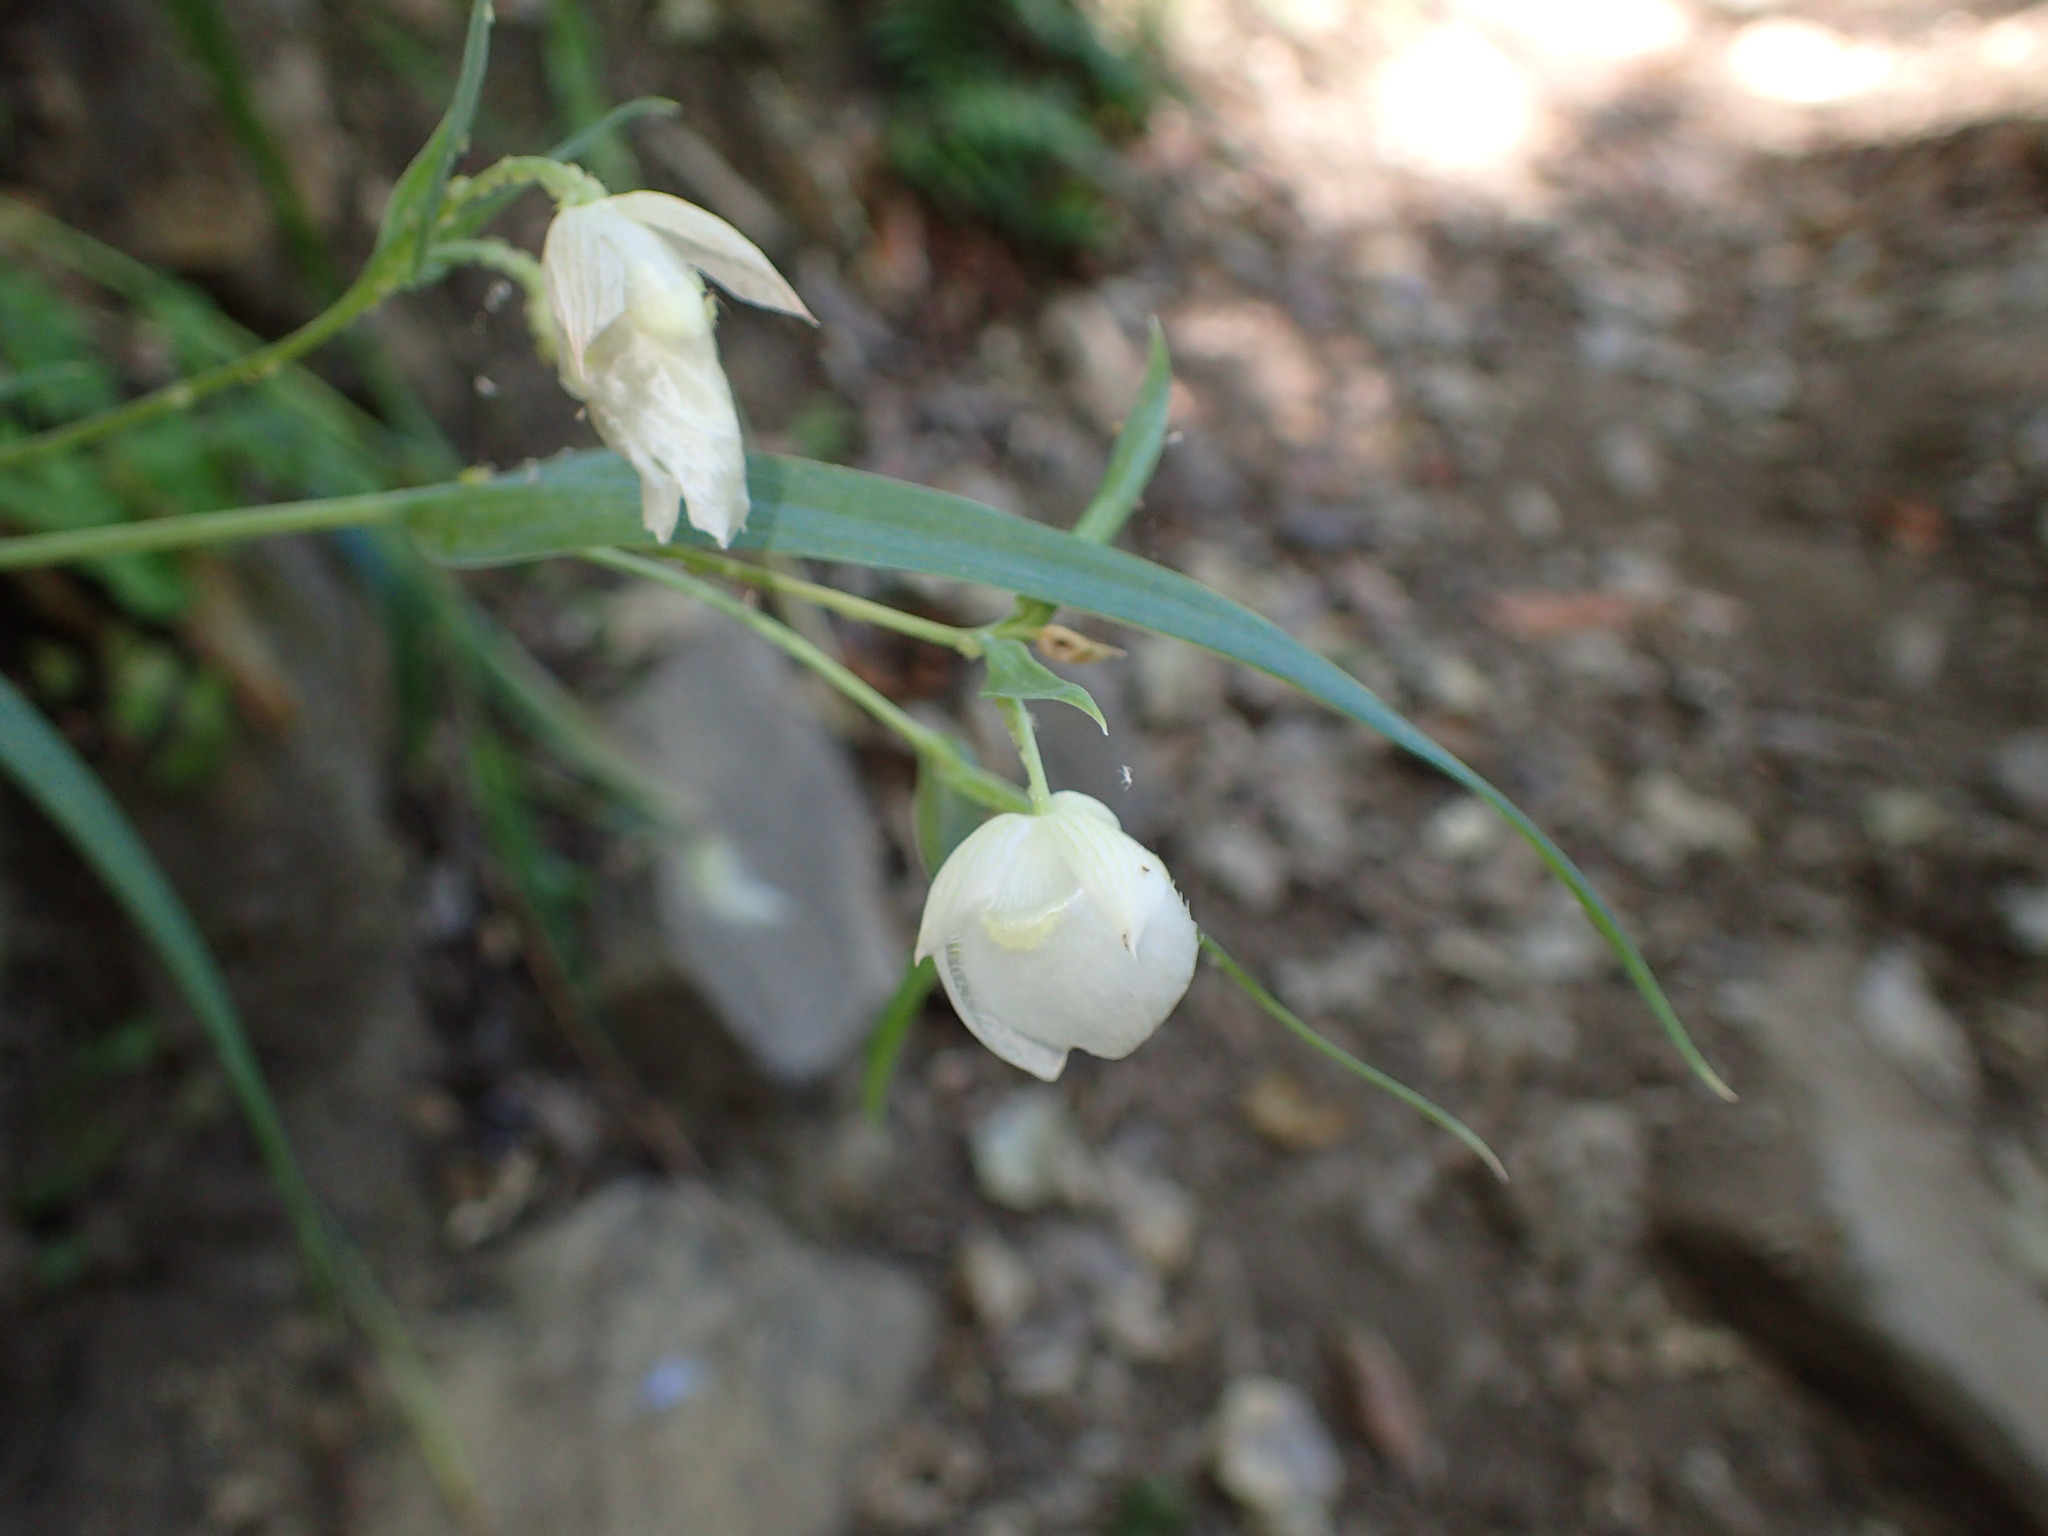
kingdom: Plantae
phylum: Tracheophyta
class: Liliopsida
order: Liliales
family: Liliaceae
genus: Calochortus
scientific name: Calochortus albus
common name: Fairy-lantern
